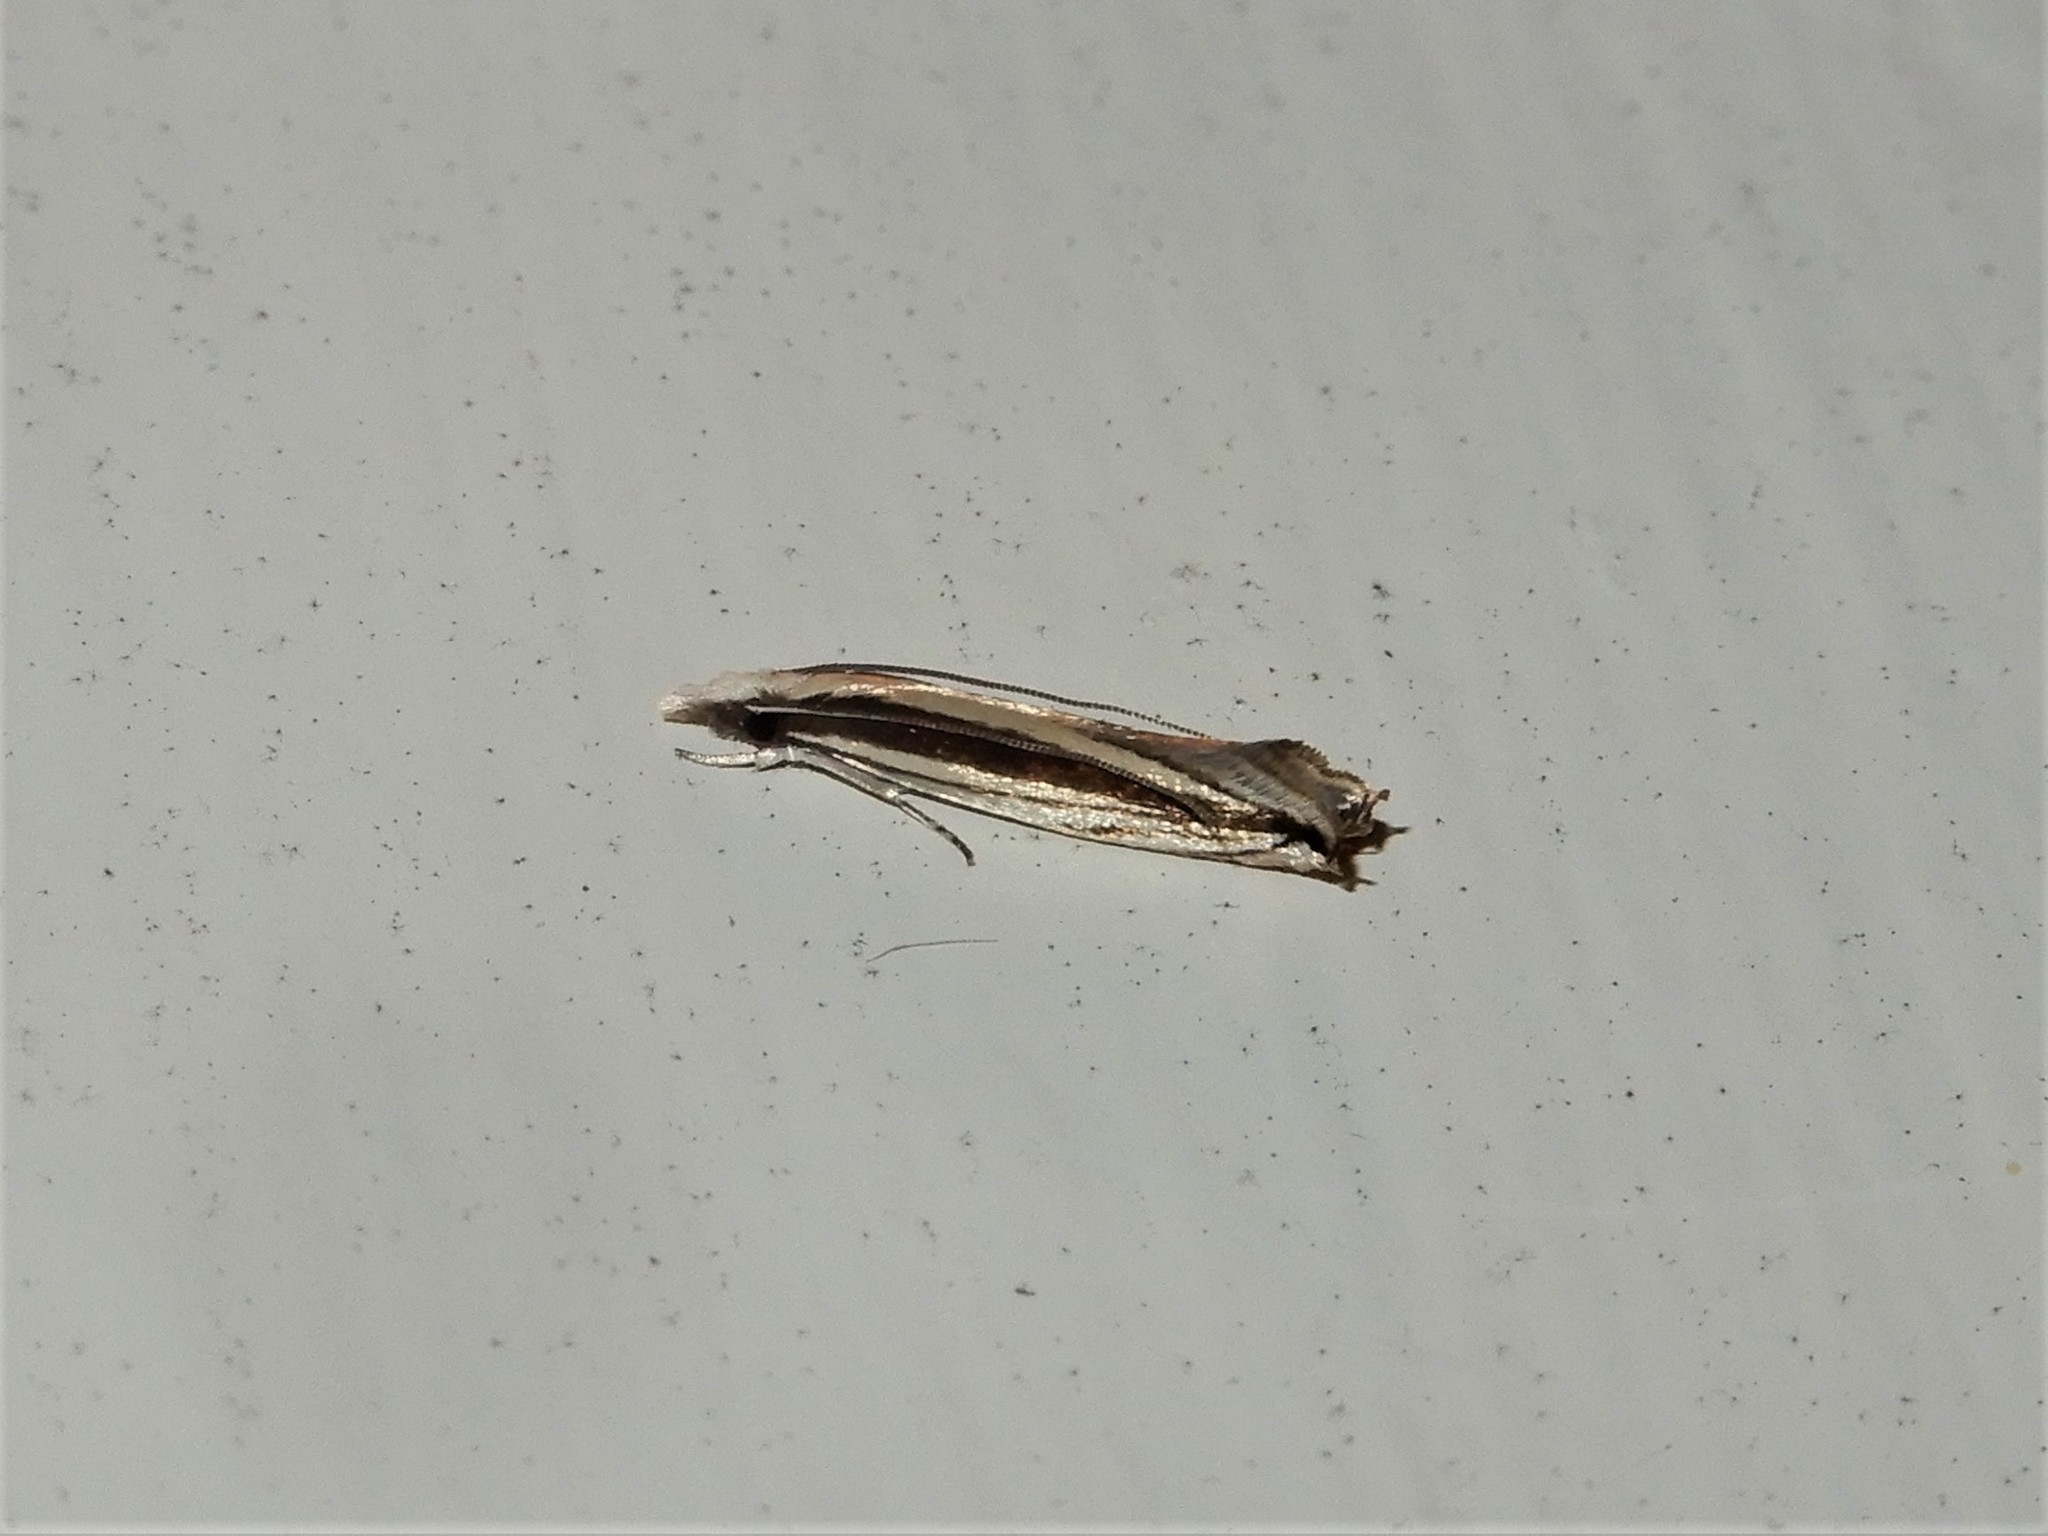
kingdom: Animalia
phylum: Arthropoda
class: Insecta
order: Lepidoptera
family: Tineidae
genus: Erechthias
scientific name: Erechthias stilbella
